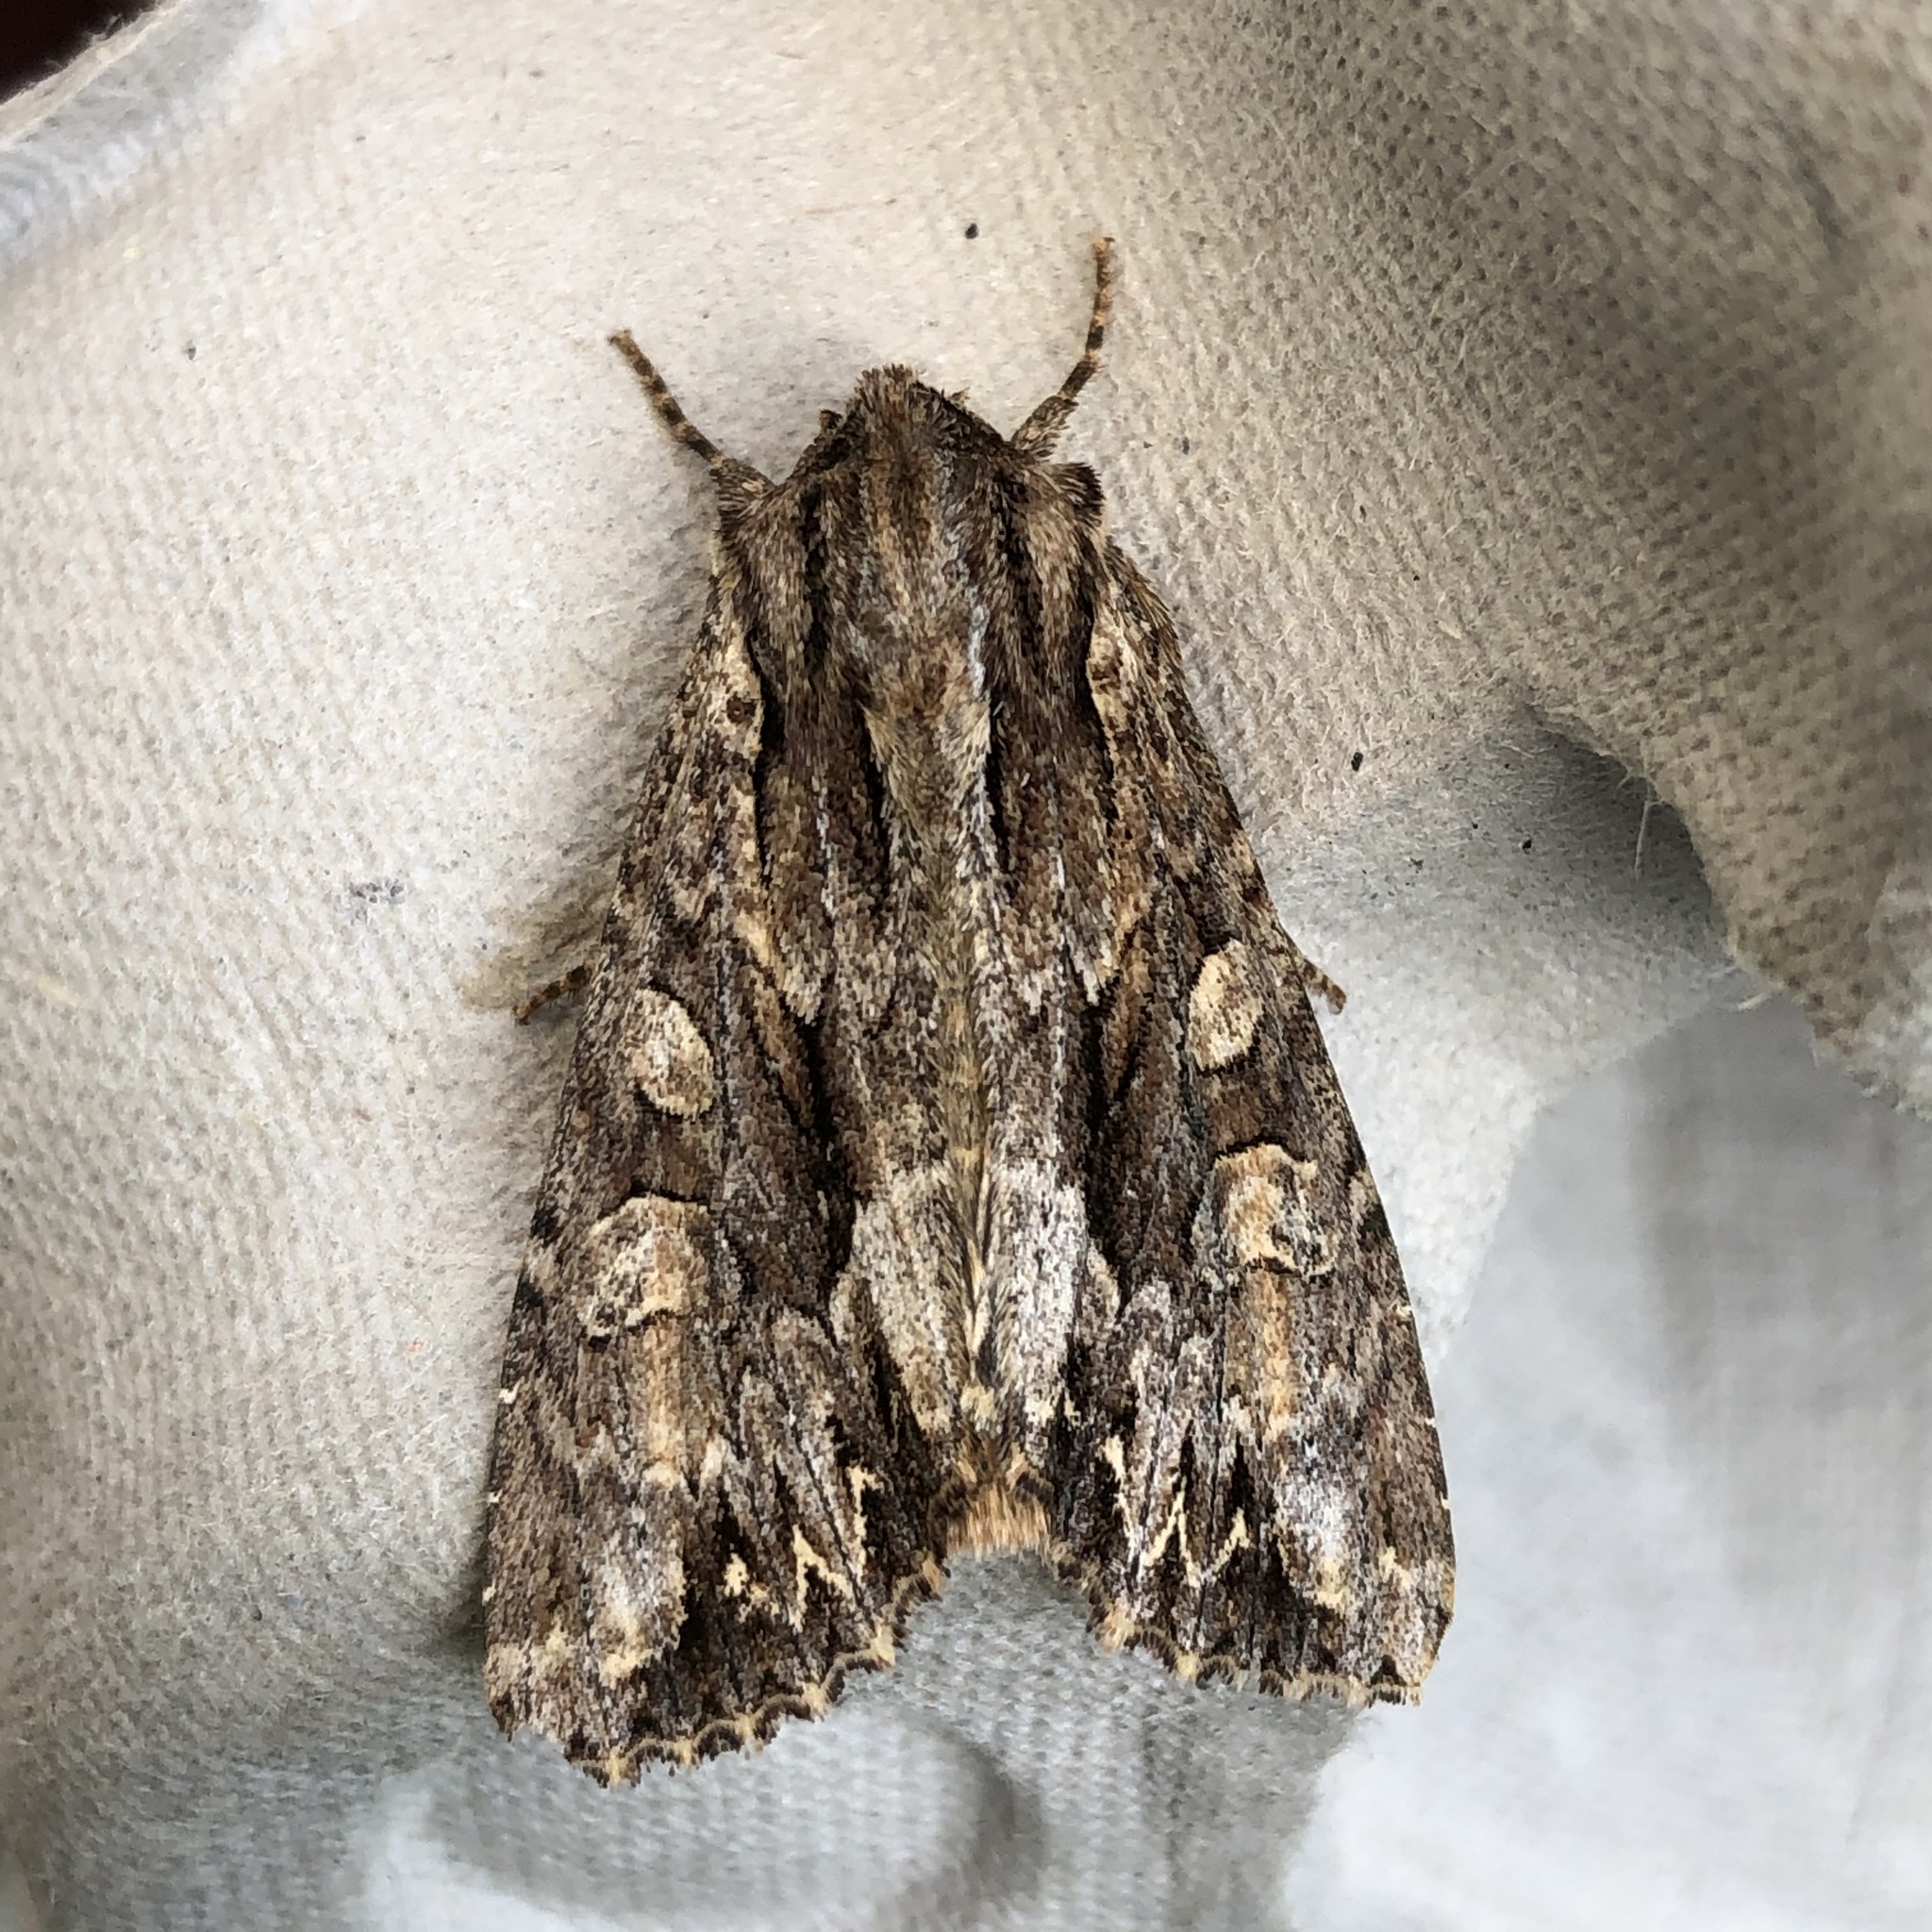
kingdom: Animalia
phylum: Arthropoda
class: Insecta
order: Lepidoptera
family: Noctuidae
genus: Apamea
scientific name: Apamea monoglypha
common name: Dark arches
